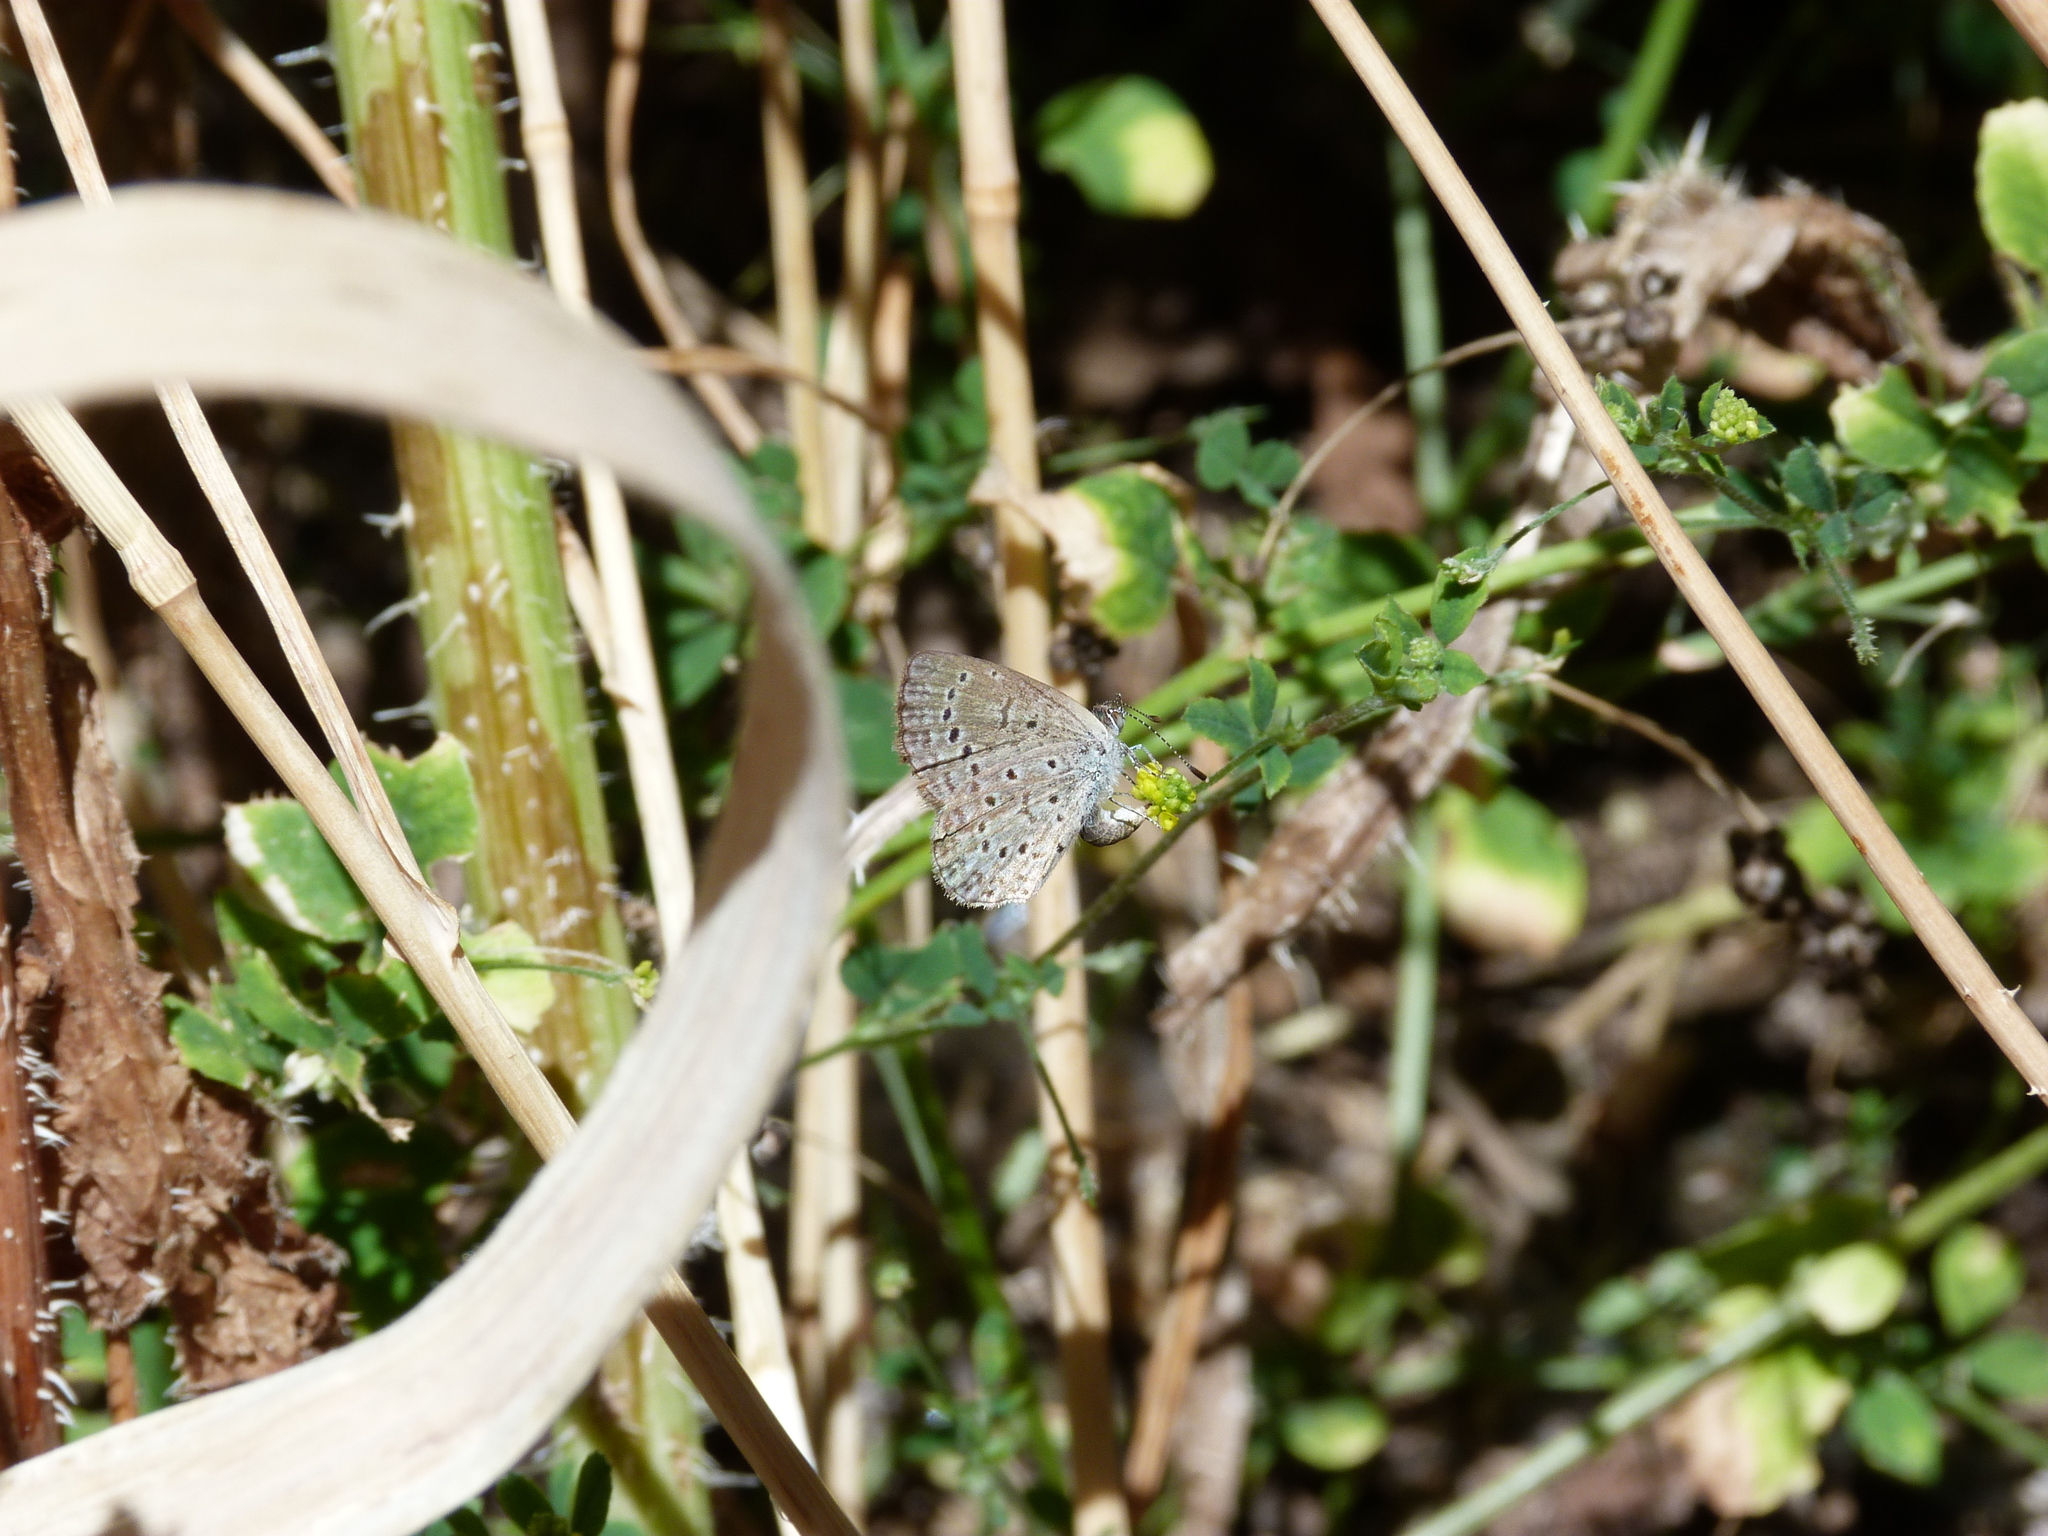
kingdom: Animalia
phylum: Arthropoda
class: Insecta
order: Lepidoptera
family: Lycaenidae
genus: Zizeeria
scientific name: Zizeeria knysna
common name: African grass blue
